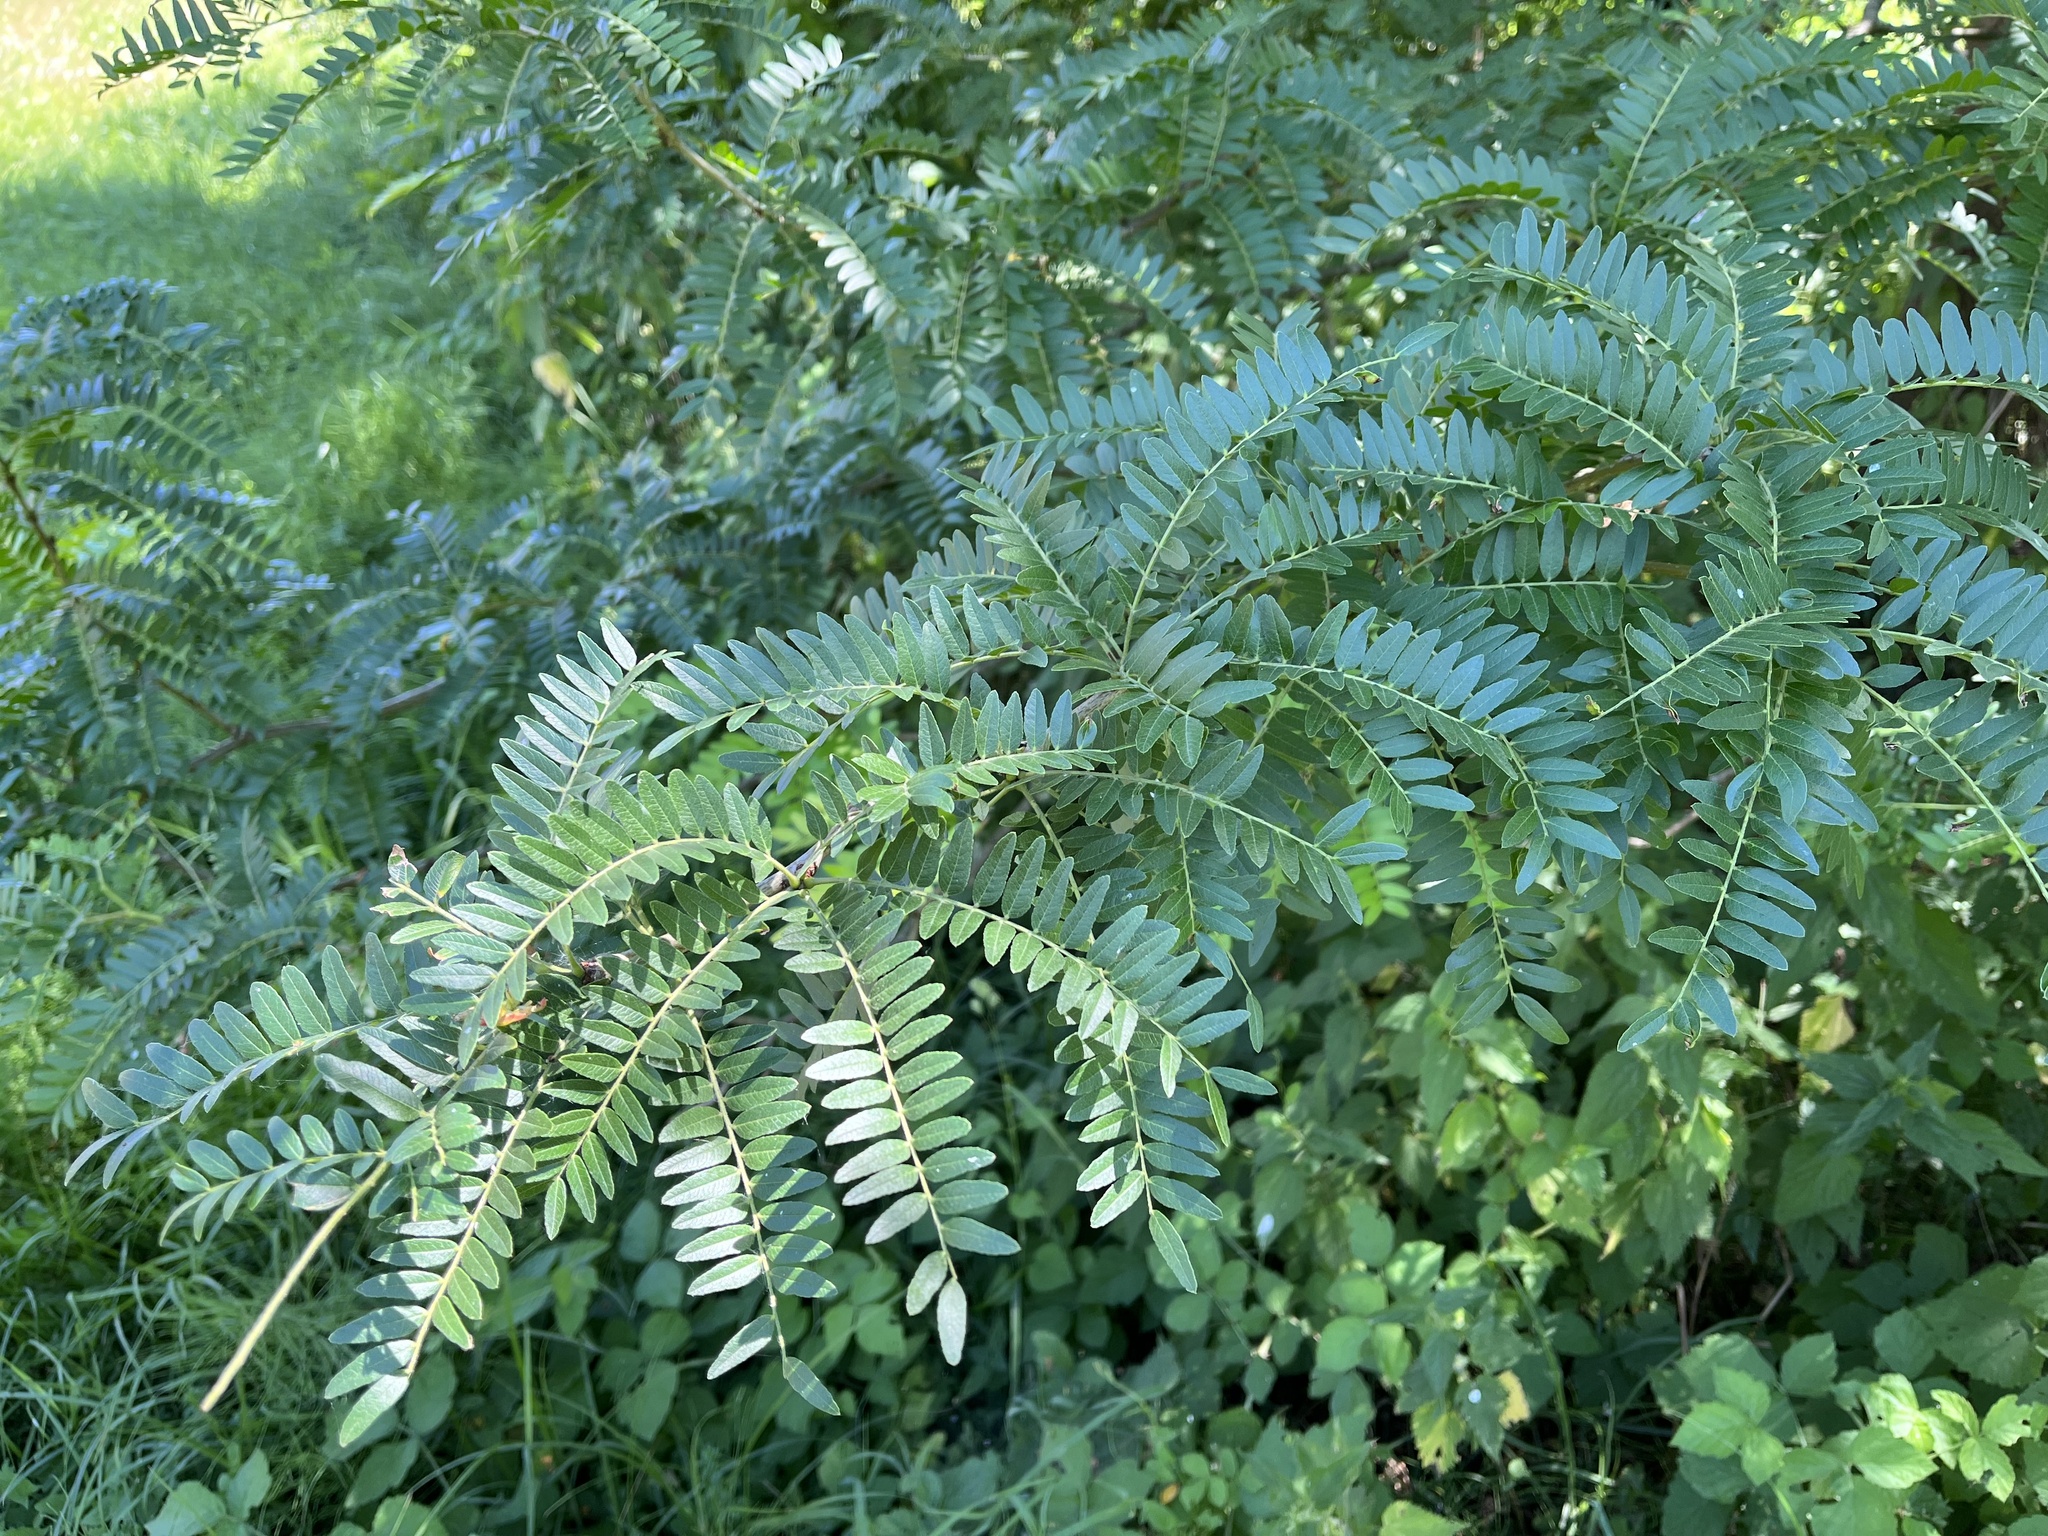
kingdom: Plantae
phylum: Tracheophyta
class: Magnoliopsida
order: Fabales
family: Fabaceae
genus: Gleditsia
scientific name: Gleditsia triacanthos
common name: Common honeylocust
